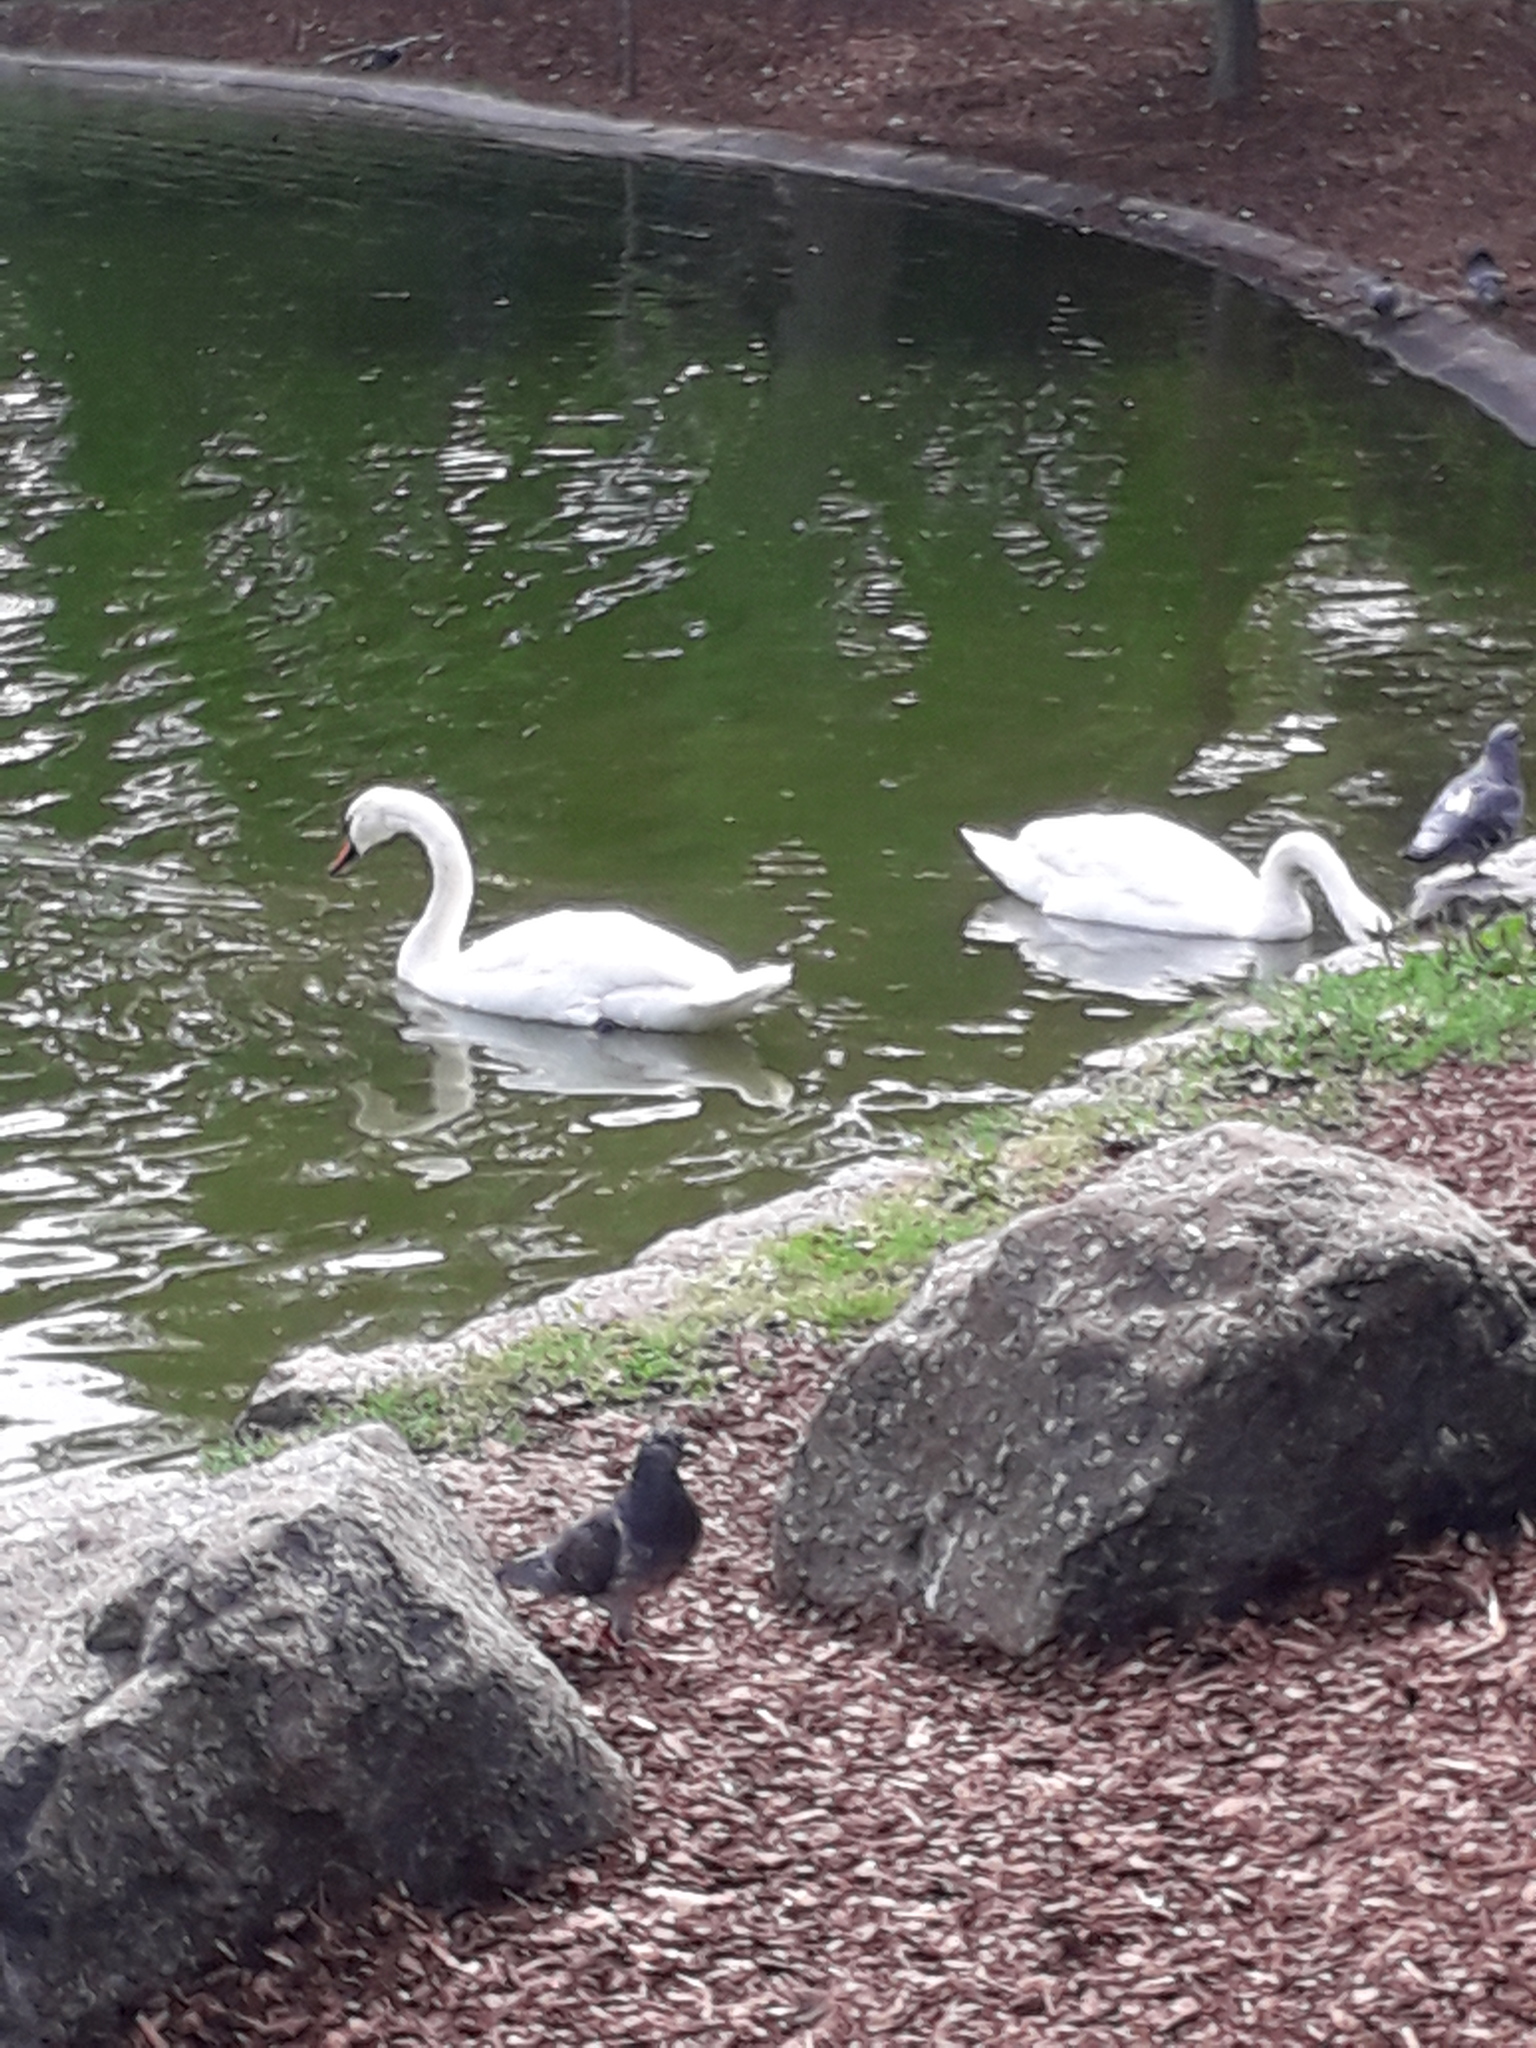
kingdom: Animalia
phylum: Chordata
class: Aves
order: Anseriformes
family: Anatidae
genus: Cygnus
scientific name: Cygnus olor
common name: Mute swan
